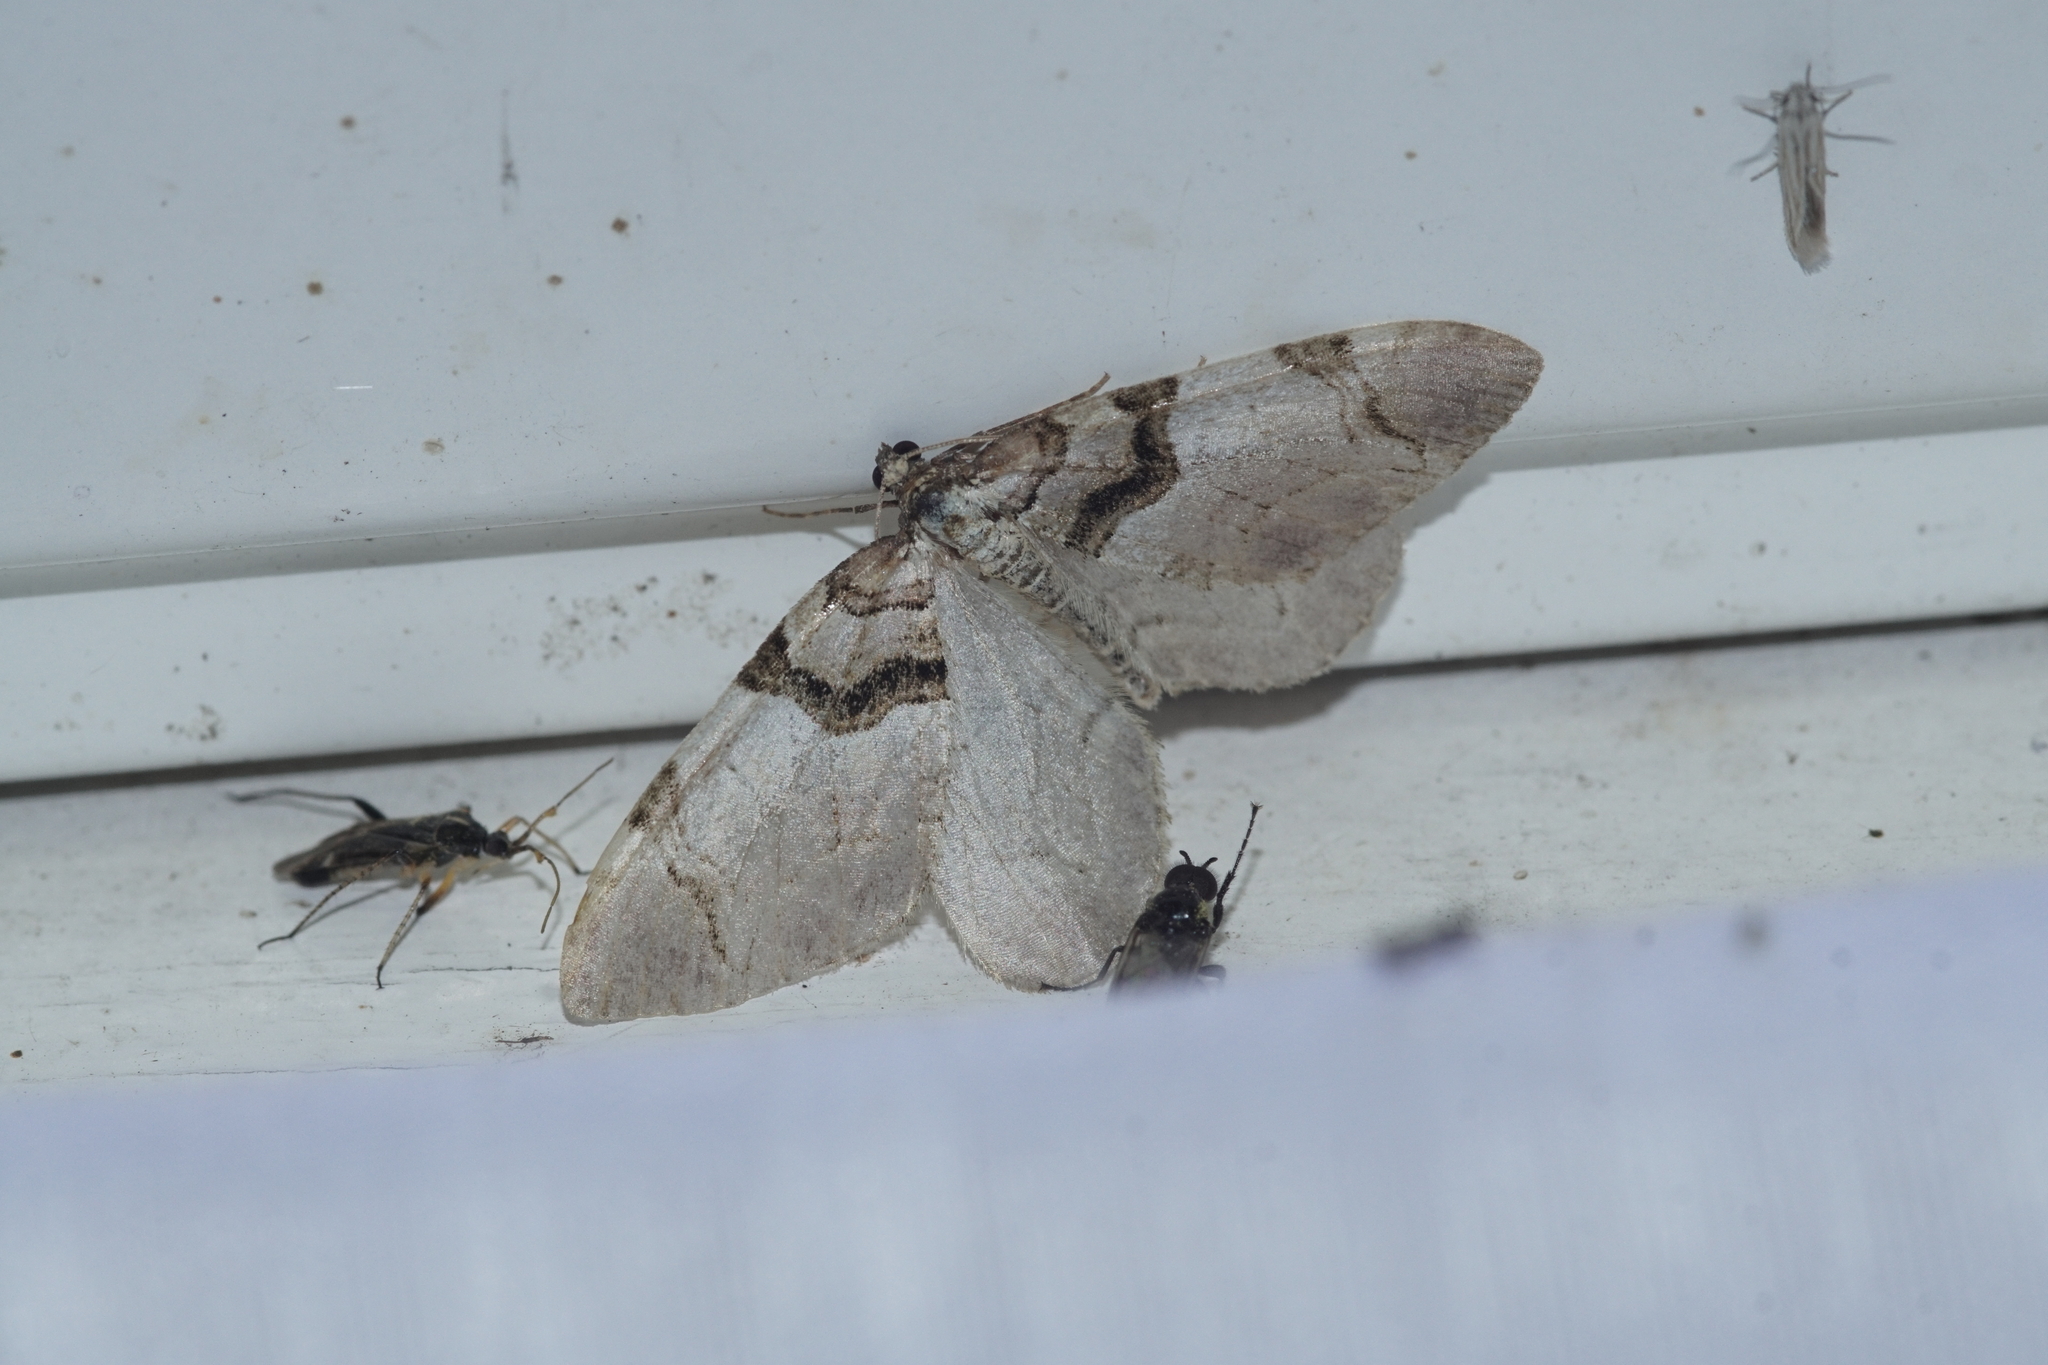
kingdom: Animalia
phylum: Arthropoda
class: Insecta
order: Lepidoptera
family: Geometridae
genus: Anticlea
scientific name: Anticlea derivata
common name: Streamer
